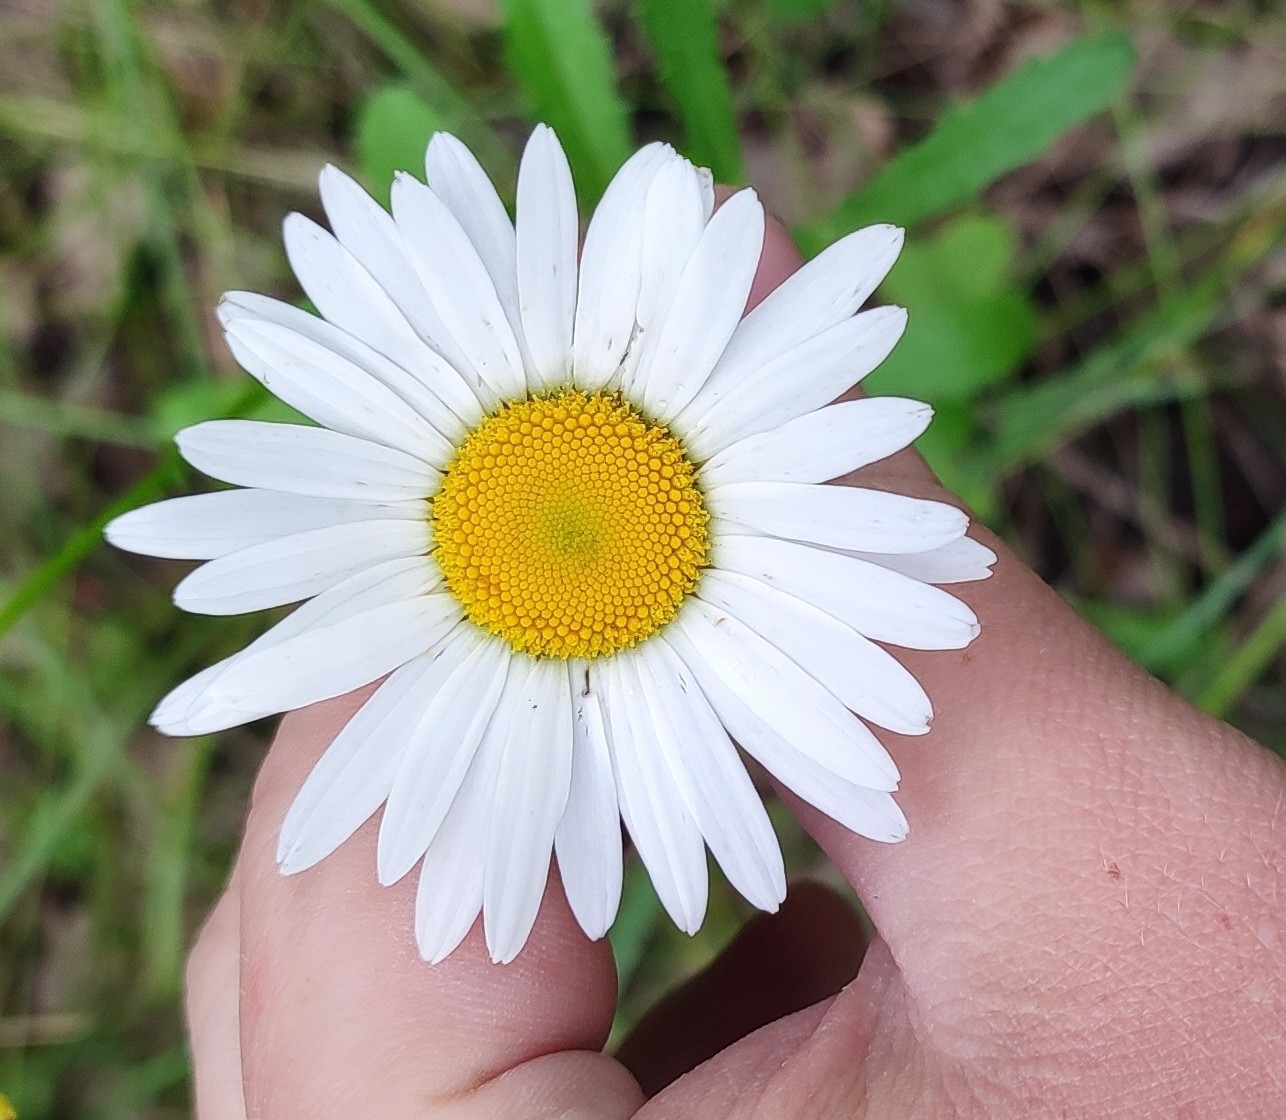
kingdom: Plantae
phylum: Tracheophyta
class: Magnoliopsida
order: Asterales
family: Asteraceae
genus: Leucanthemum
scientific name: Leucanthemum ircutianum
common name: Daisy
